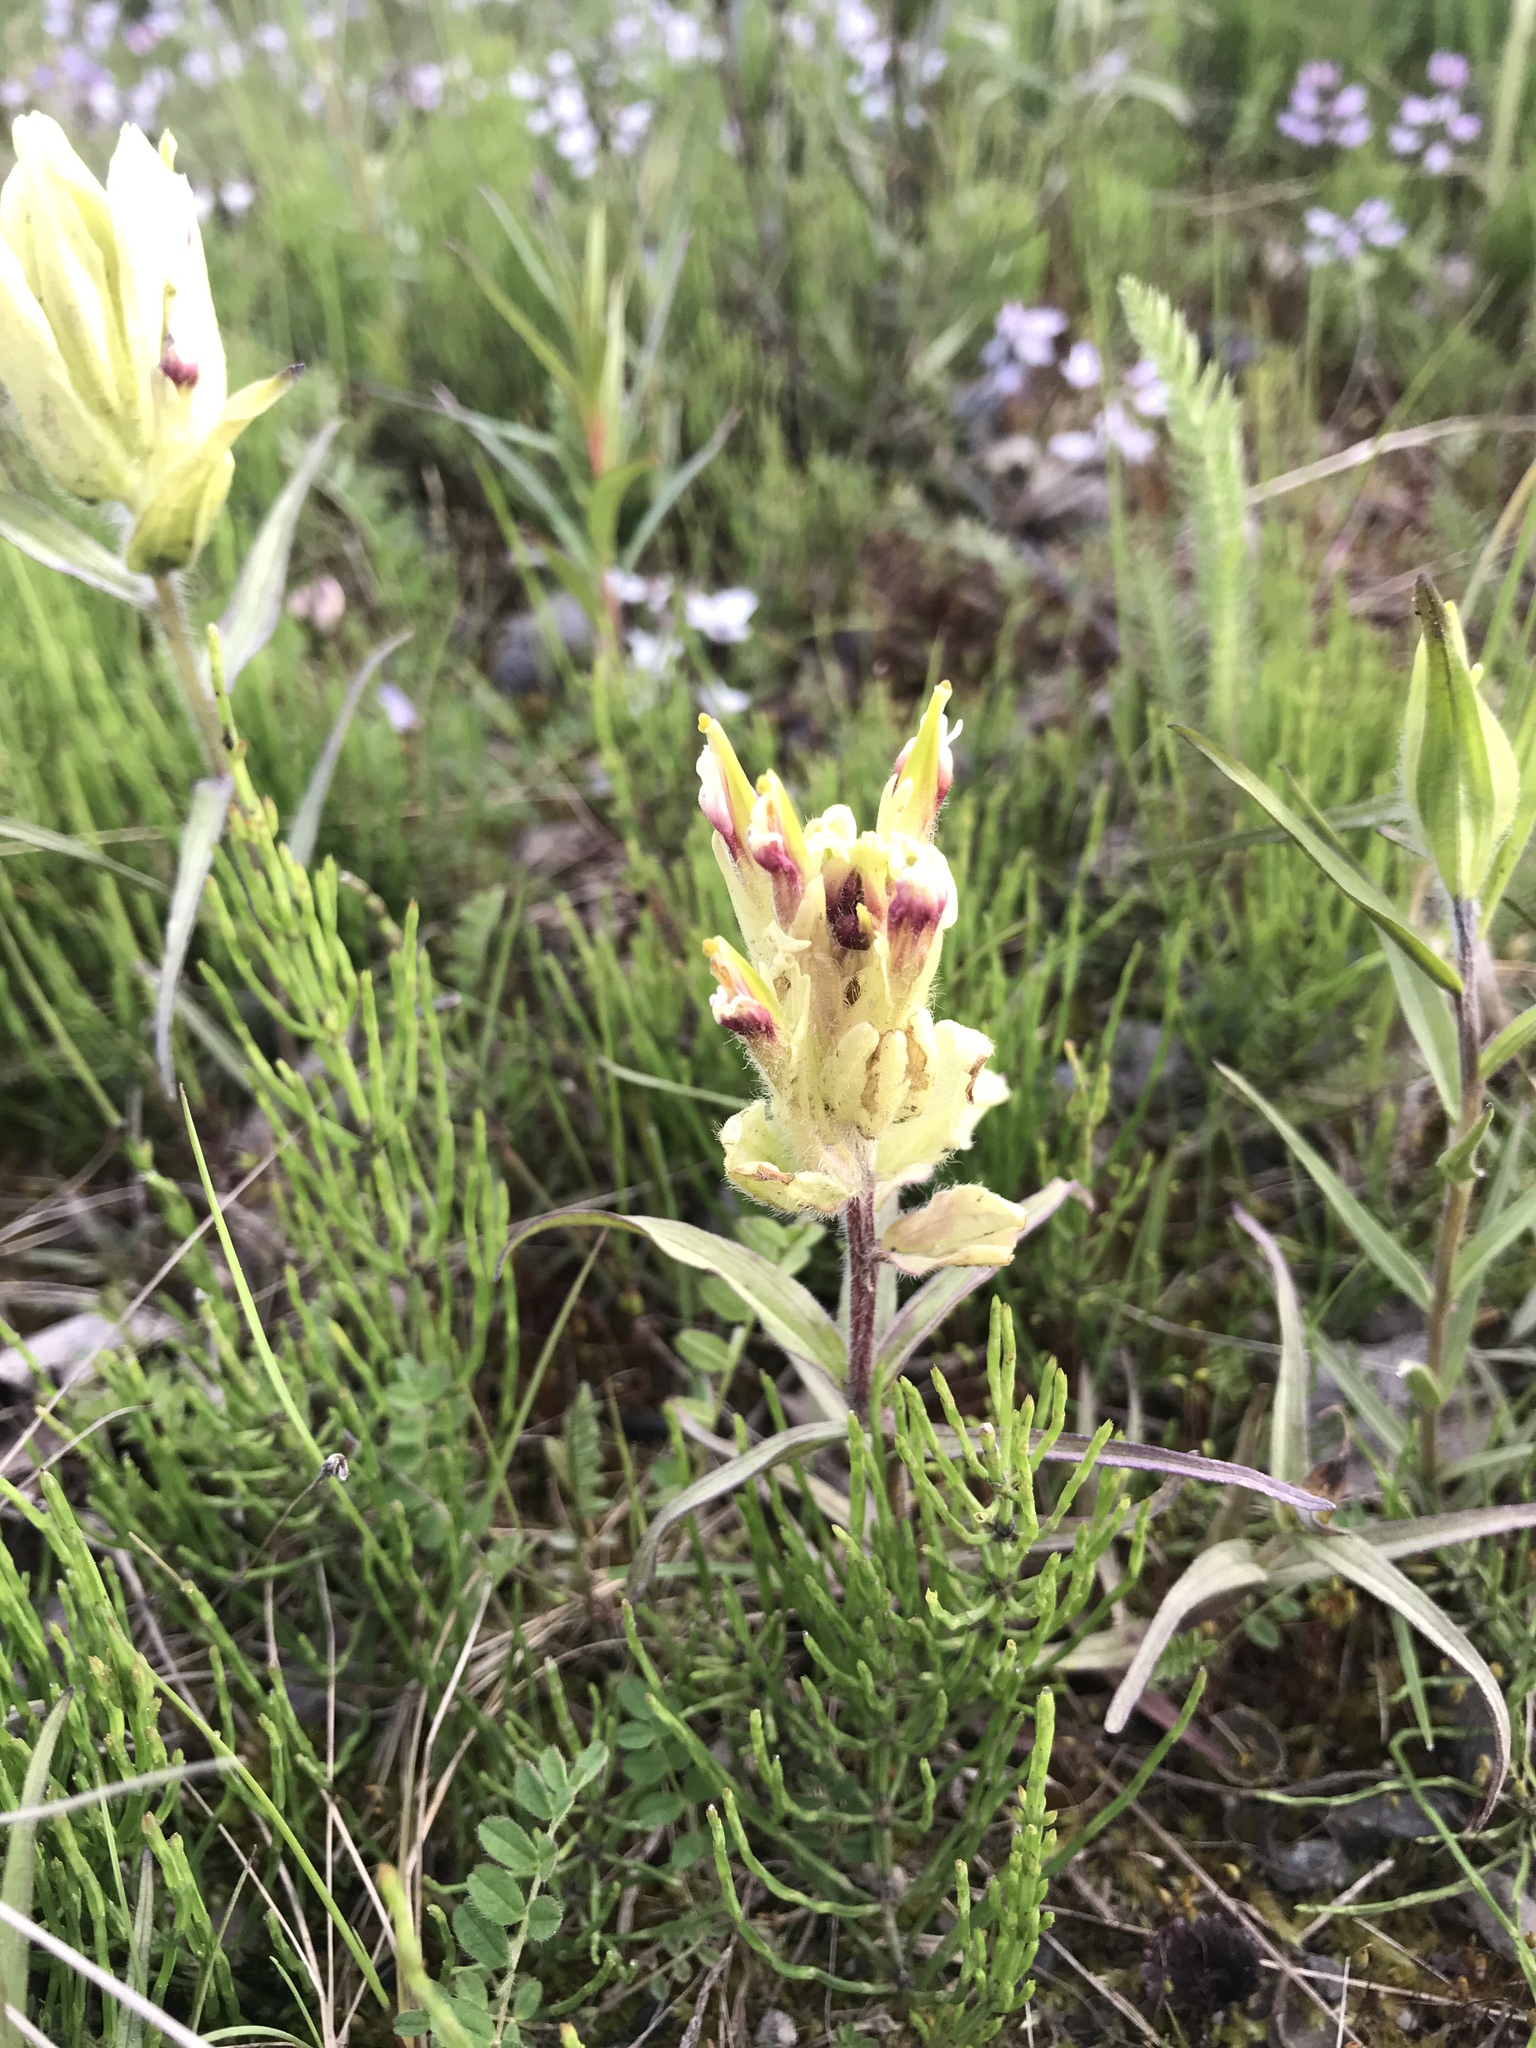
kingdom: Plantae
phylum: Tracheophyta
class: Magnoliopsida
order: Lamiales
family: Orobanchaceae
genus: Castilleja
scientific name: Castilleja pallida
